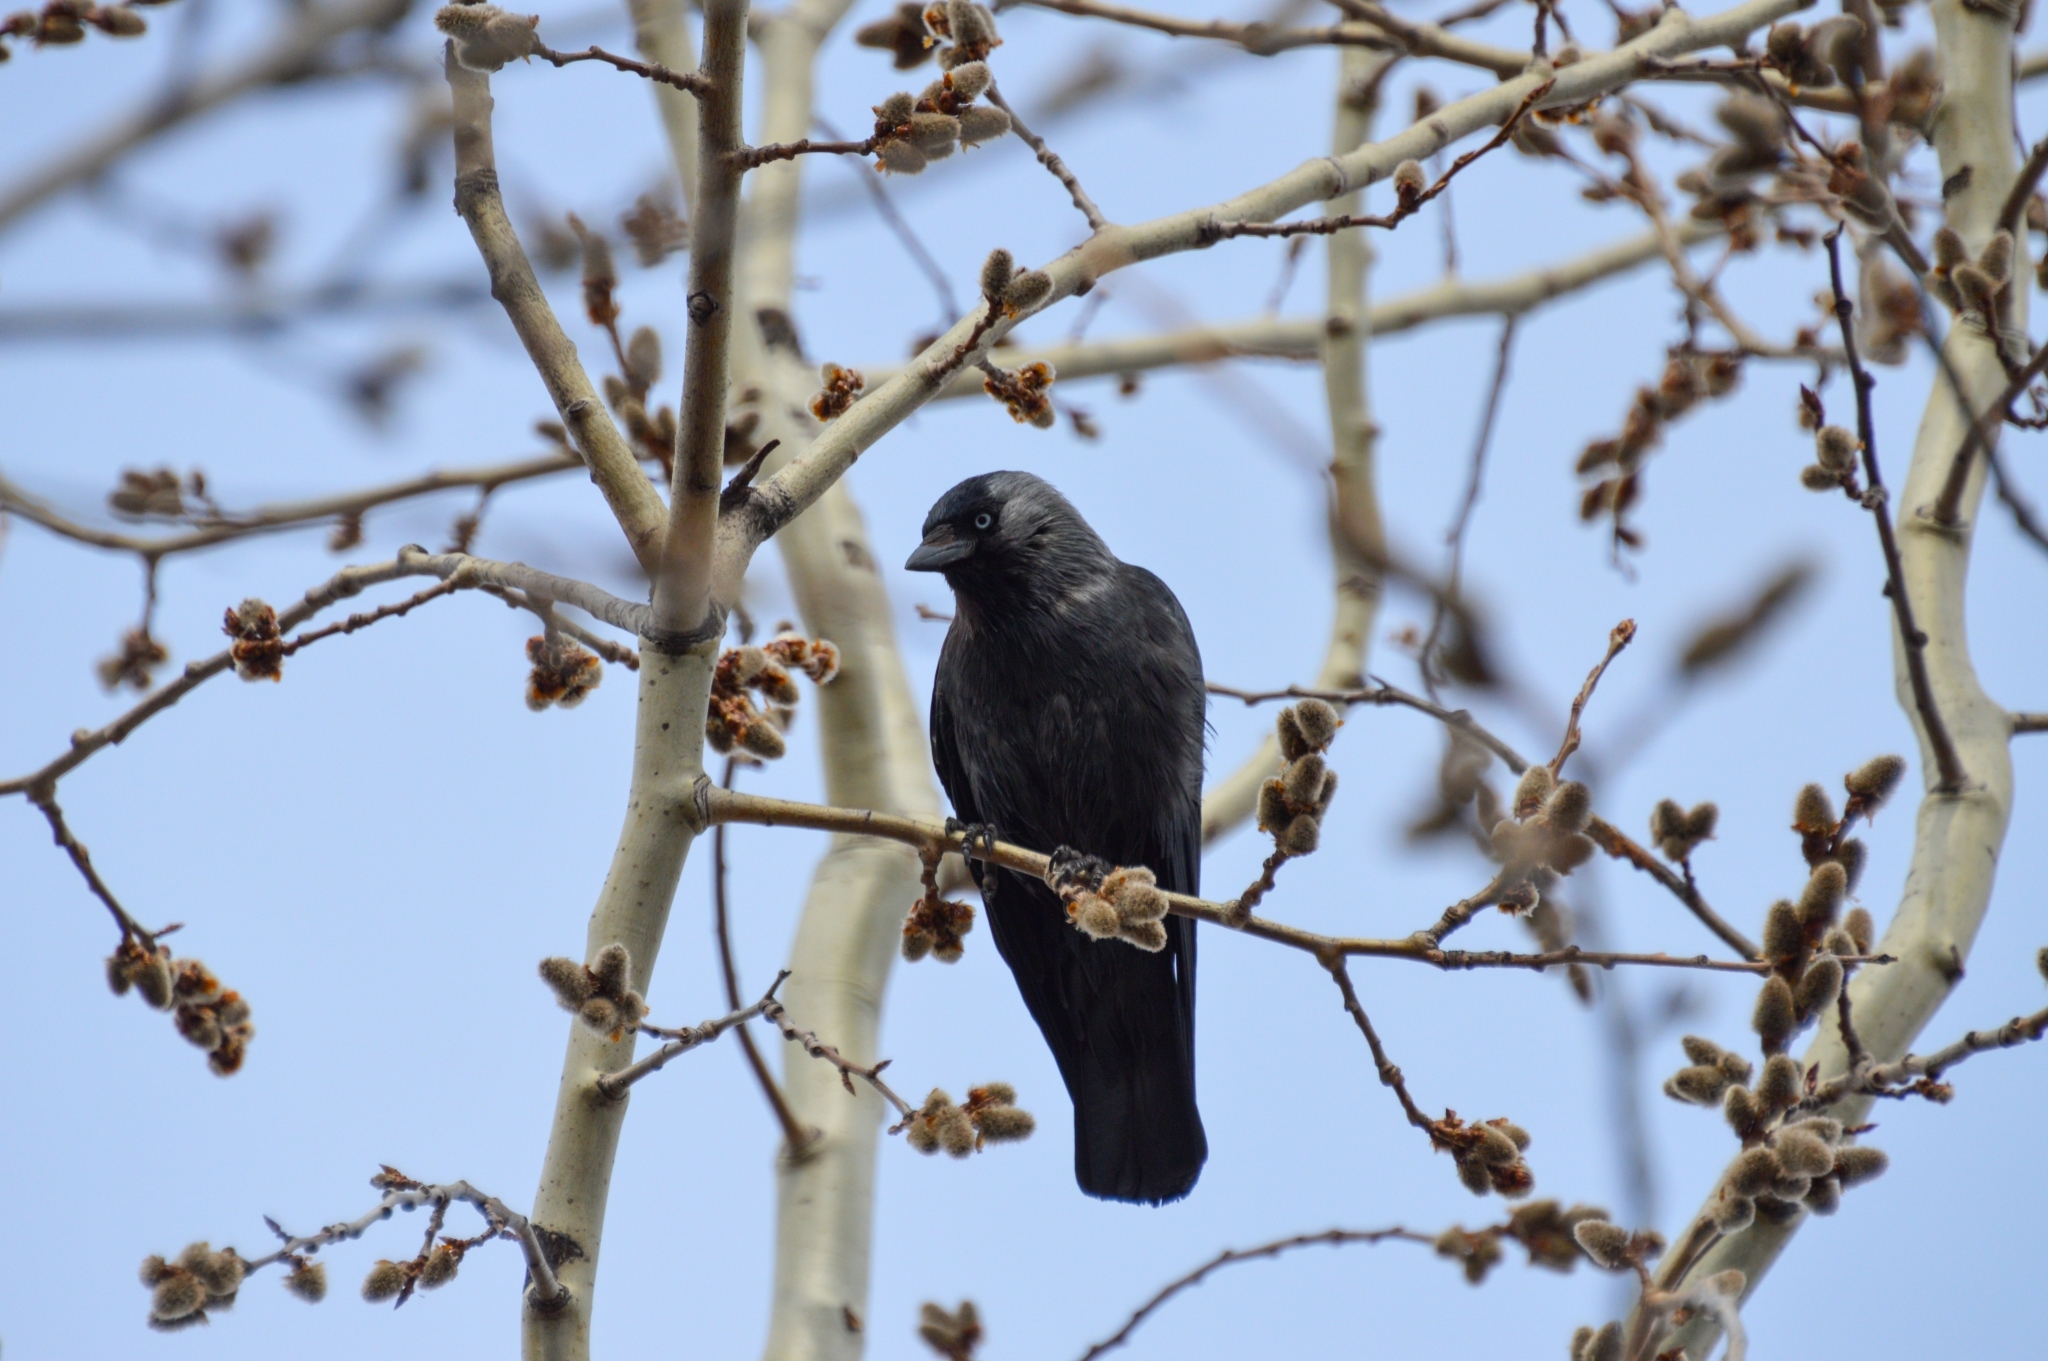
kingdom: Animalia
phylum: Chordata
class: Aves
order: Passeriformes
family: Corvidae
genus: Coloeus
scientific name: Coloeus monedula
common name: Western jackdaw
